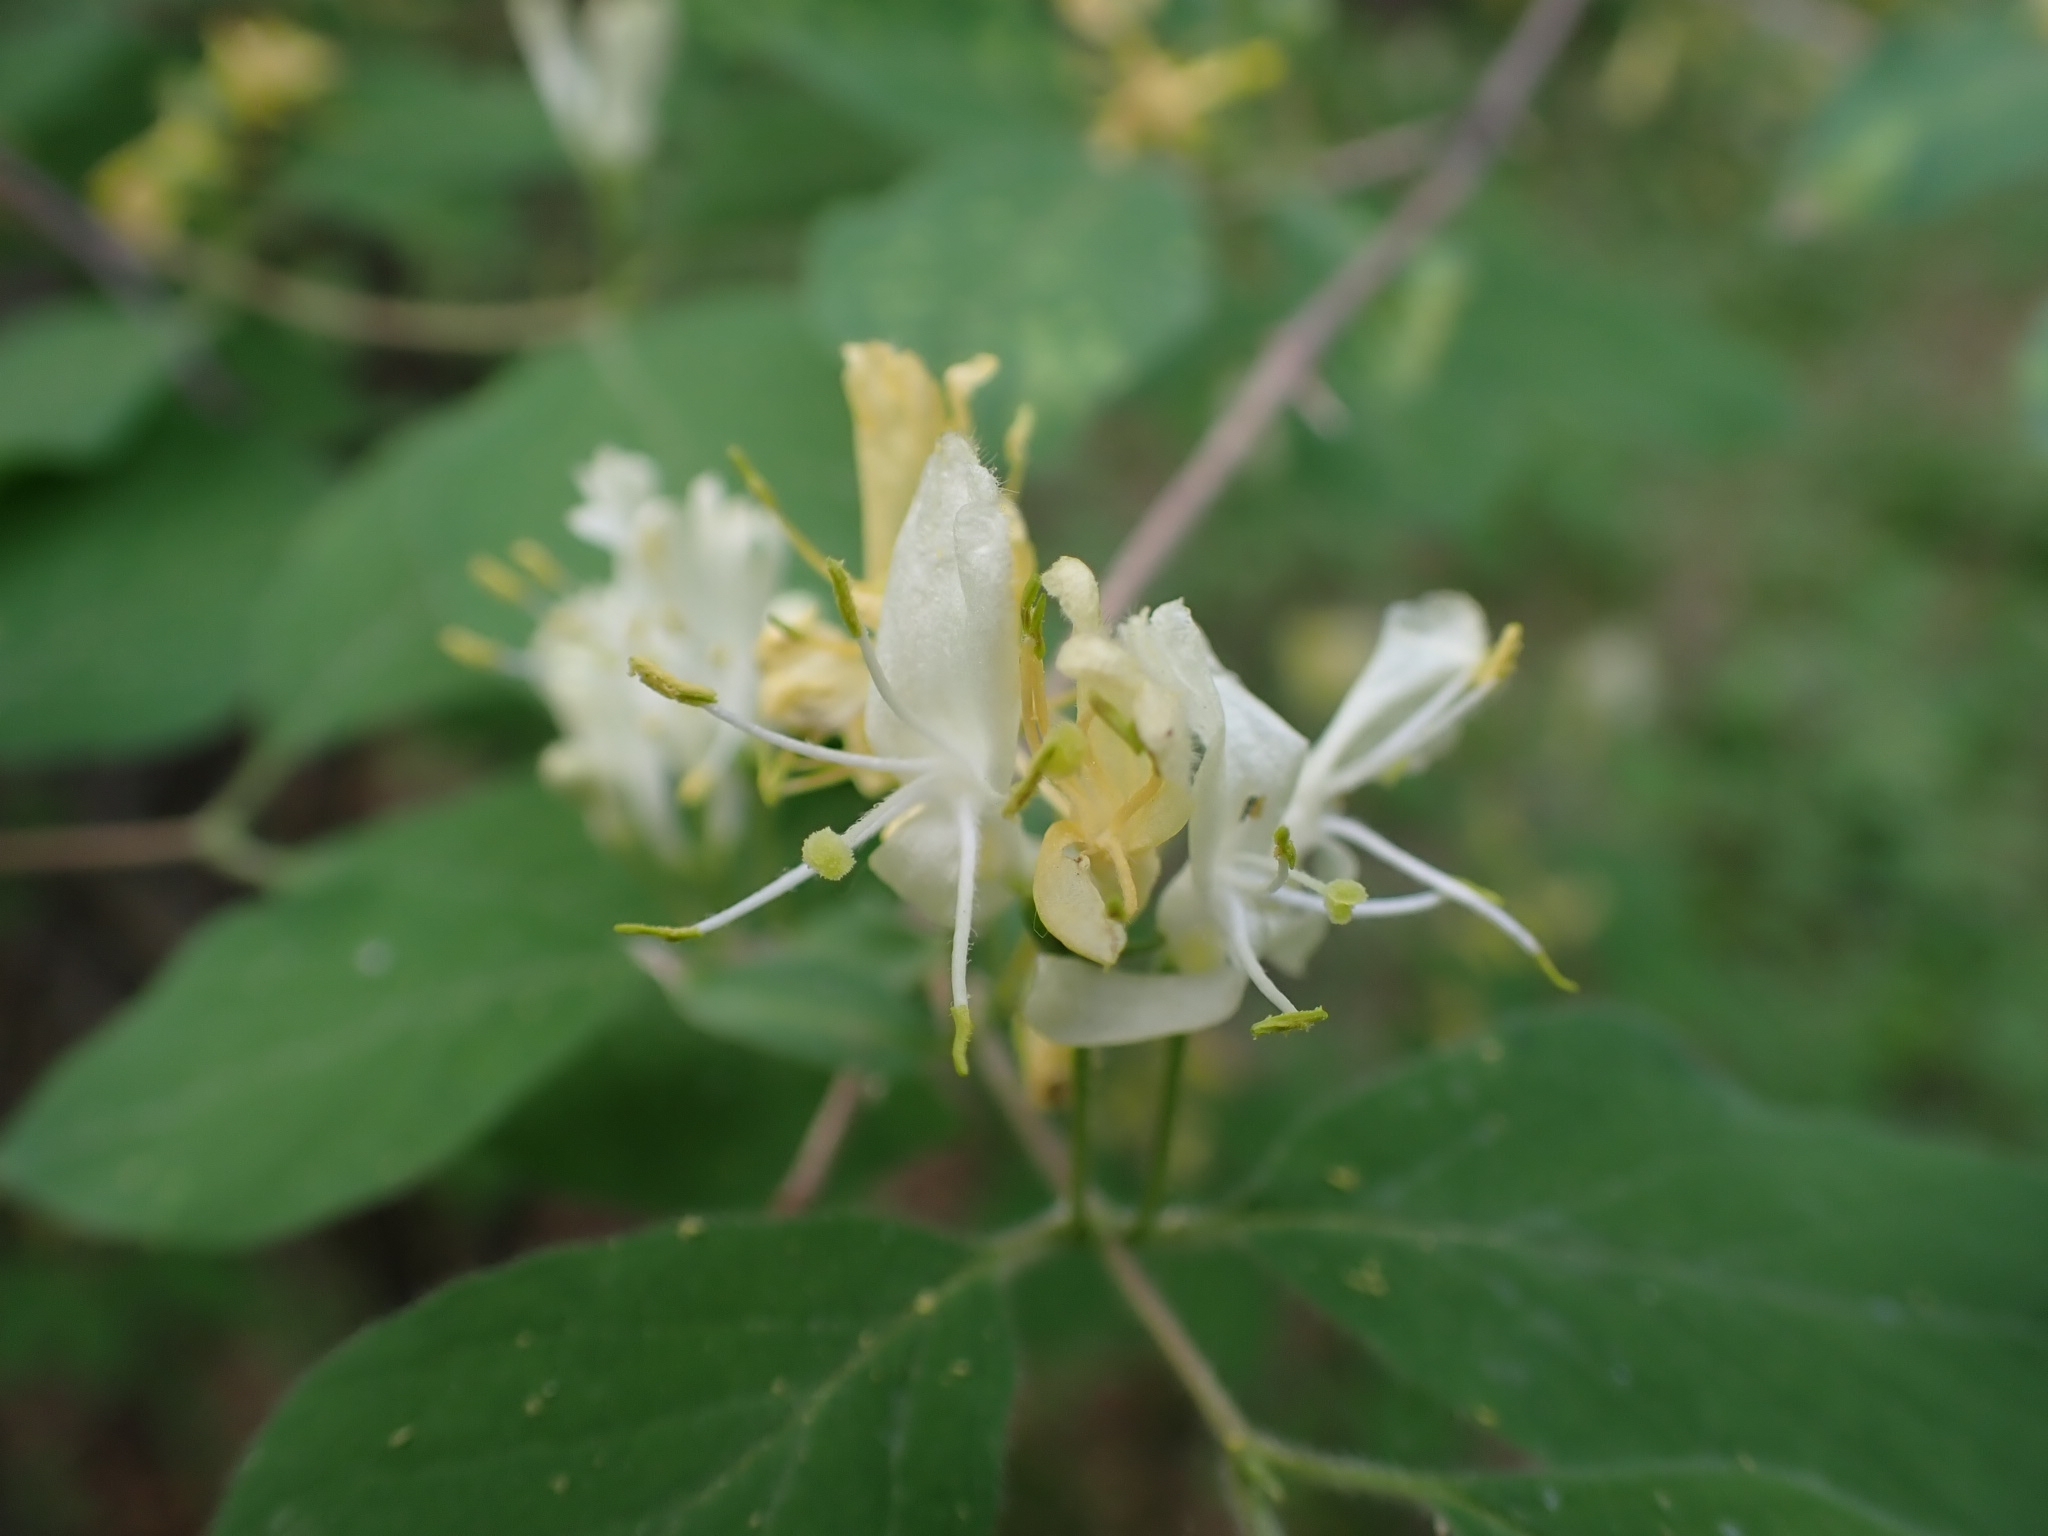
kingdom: Plantae
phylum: Tracheophyta
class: Magnoliopsida
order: Dipsacales
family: Caprifoliaceae
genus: Lonicera
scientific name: Lonicera xylosteum
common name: Fly honeysuckle
